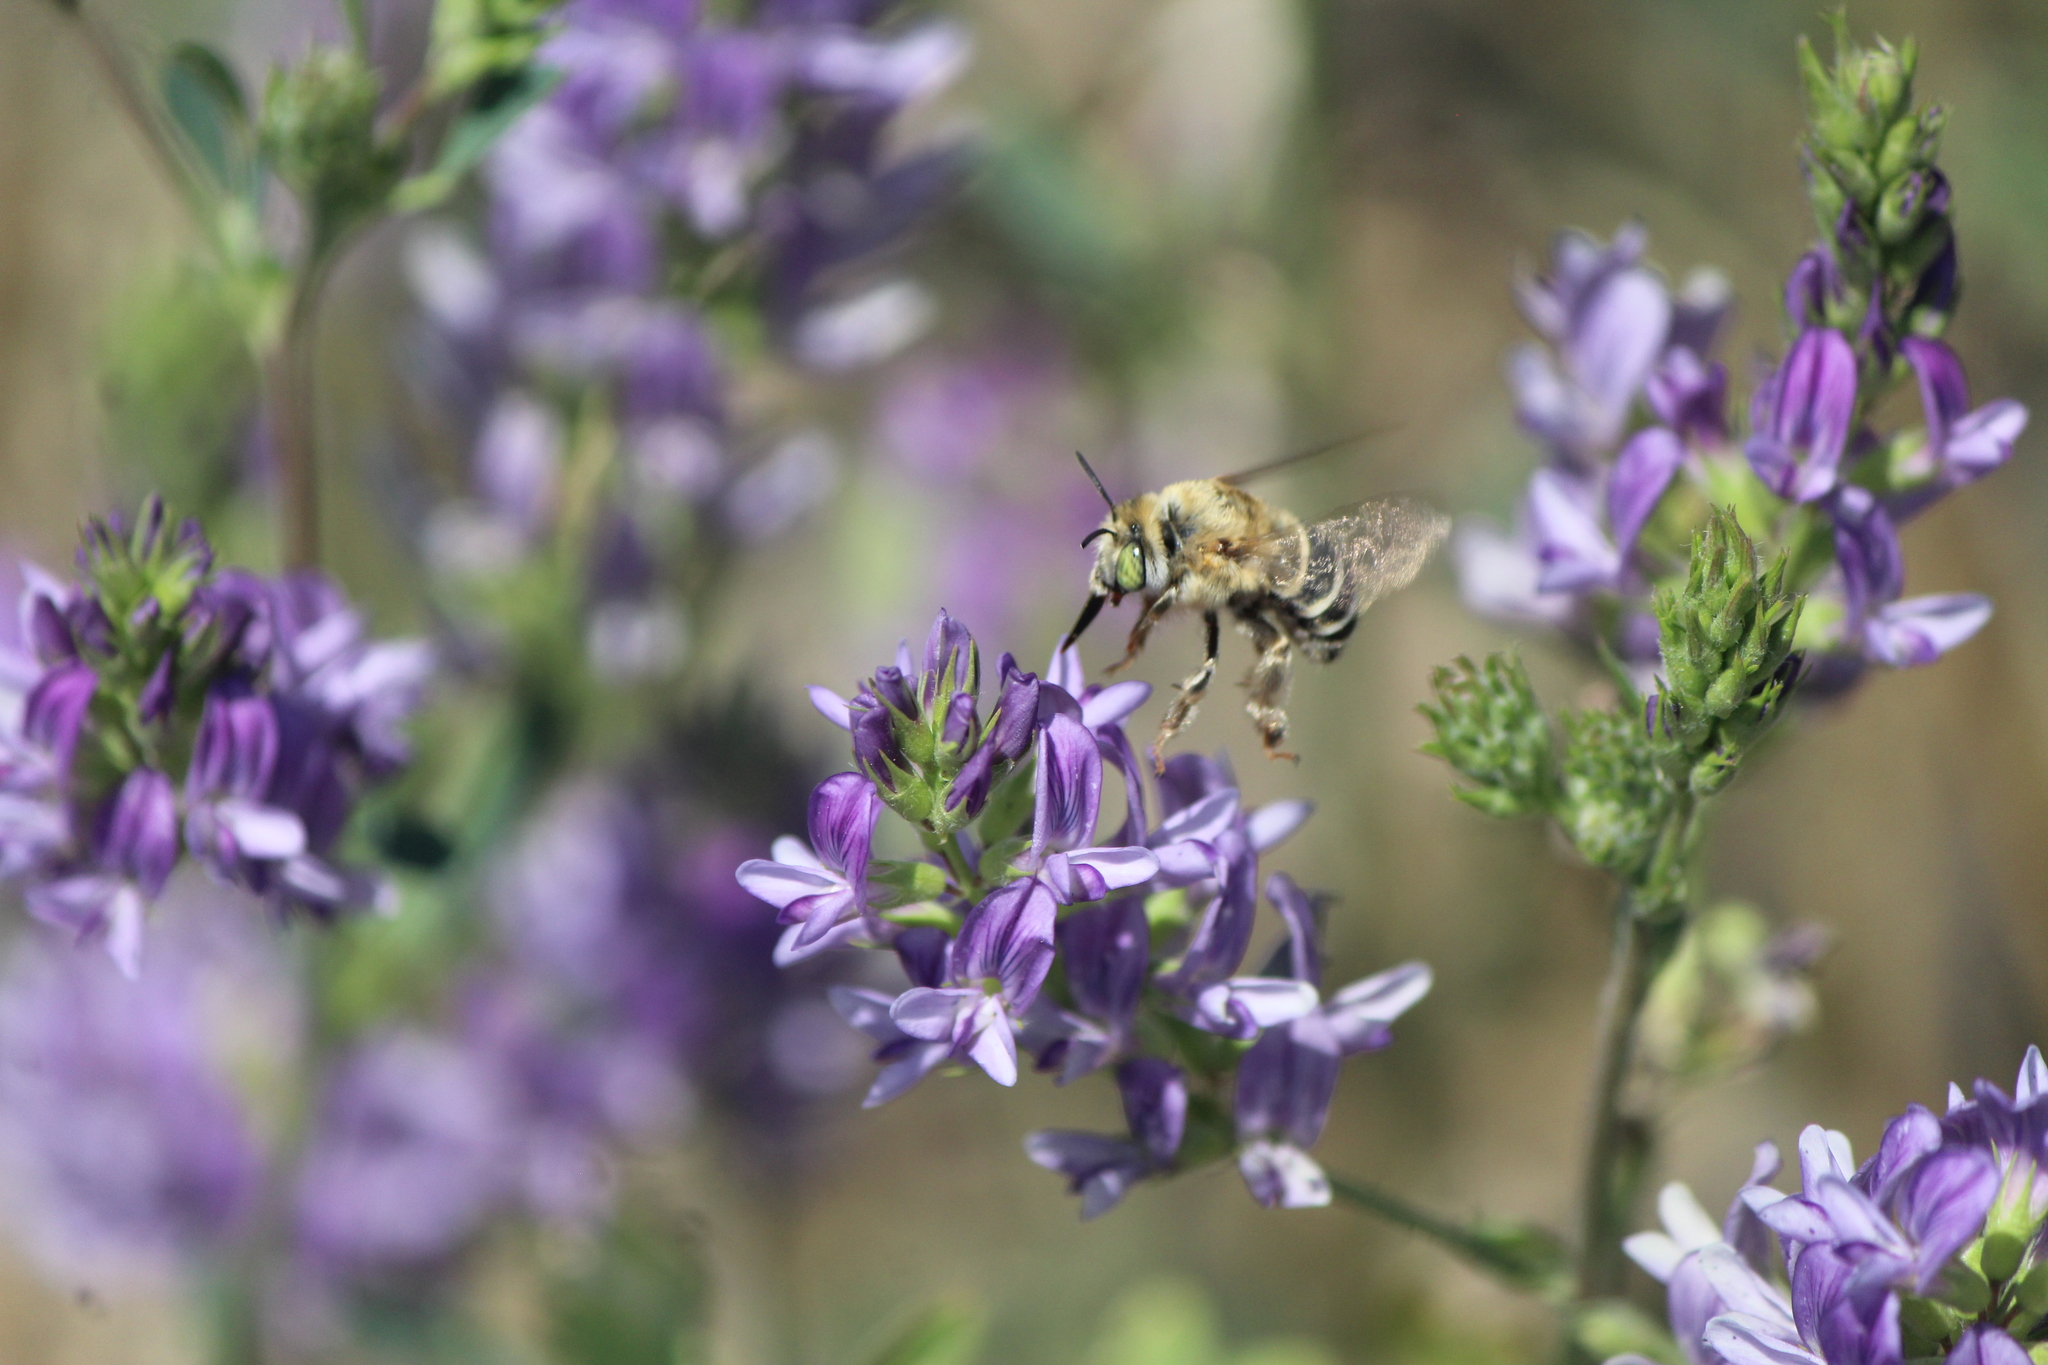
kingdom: Animalia
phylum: Arthropoda
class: Insecta
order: Hymenoptera
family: Apidae
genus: Anthophora
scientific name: Anthophora californica
